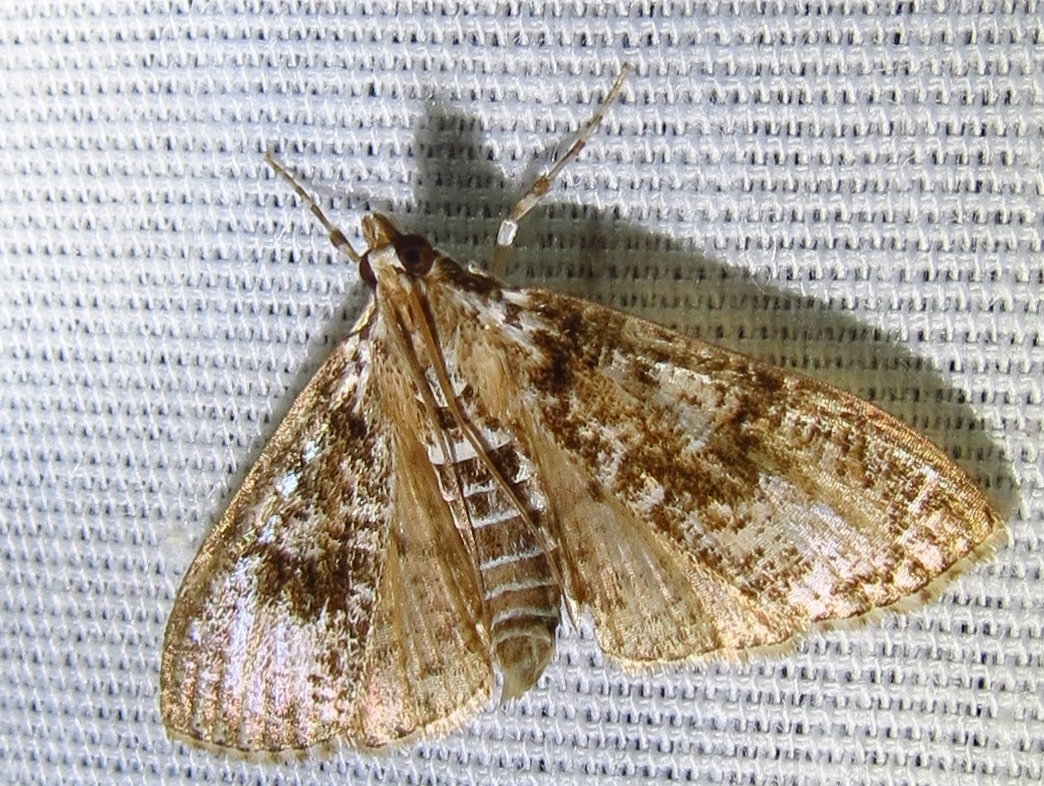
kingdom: Animalia
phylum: Arthropoda
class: Insecta
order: Lepidoptera
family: Crambidae
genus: Palpita
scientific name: Palpita magniferalis
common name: Splendid palpita moth
